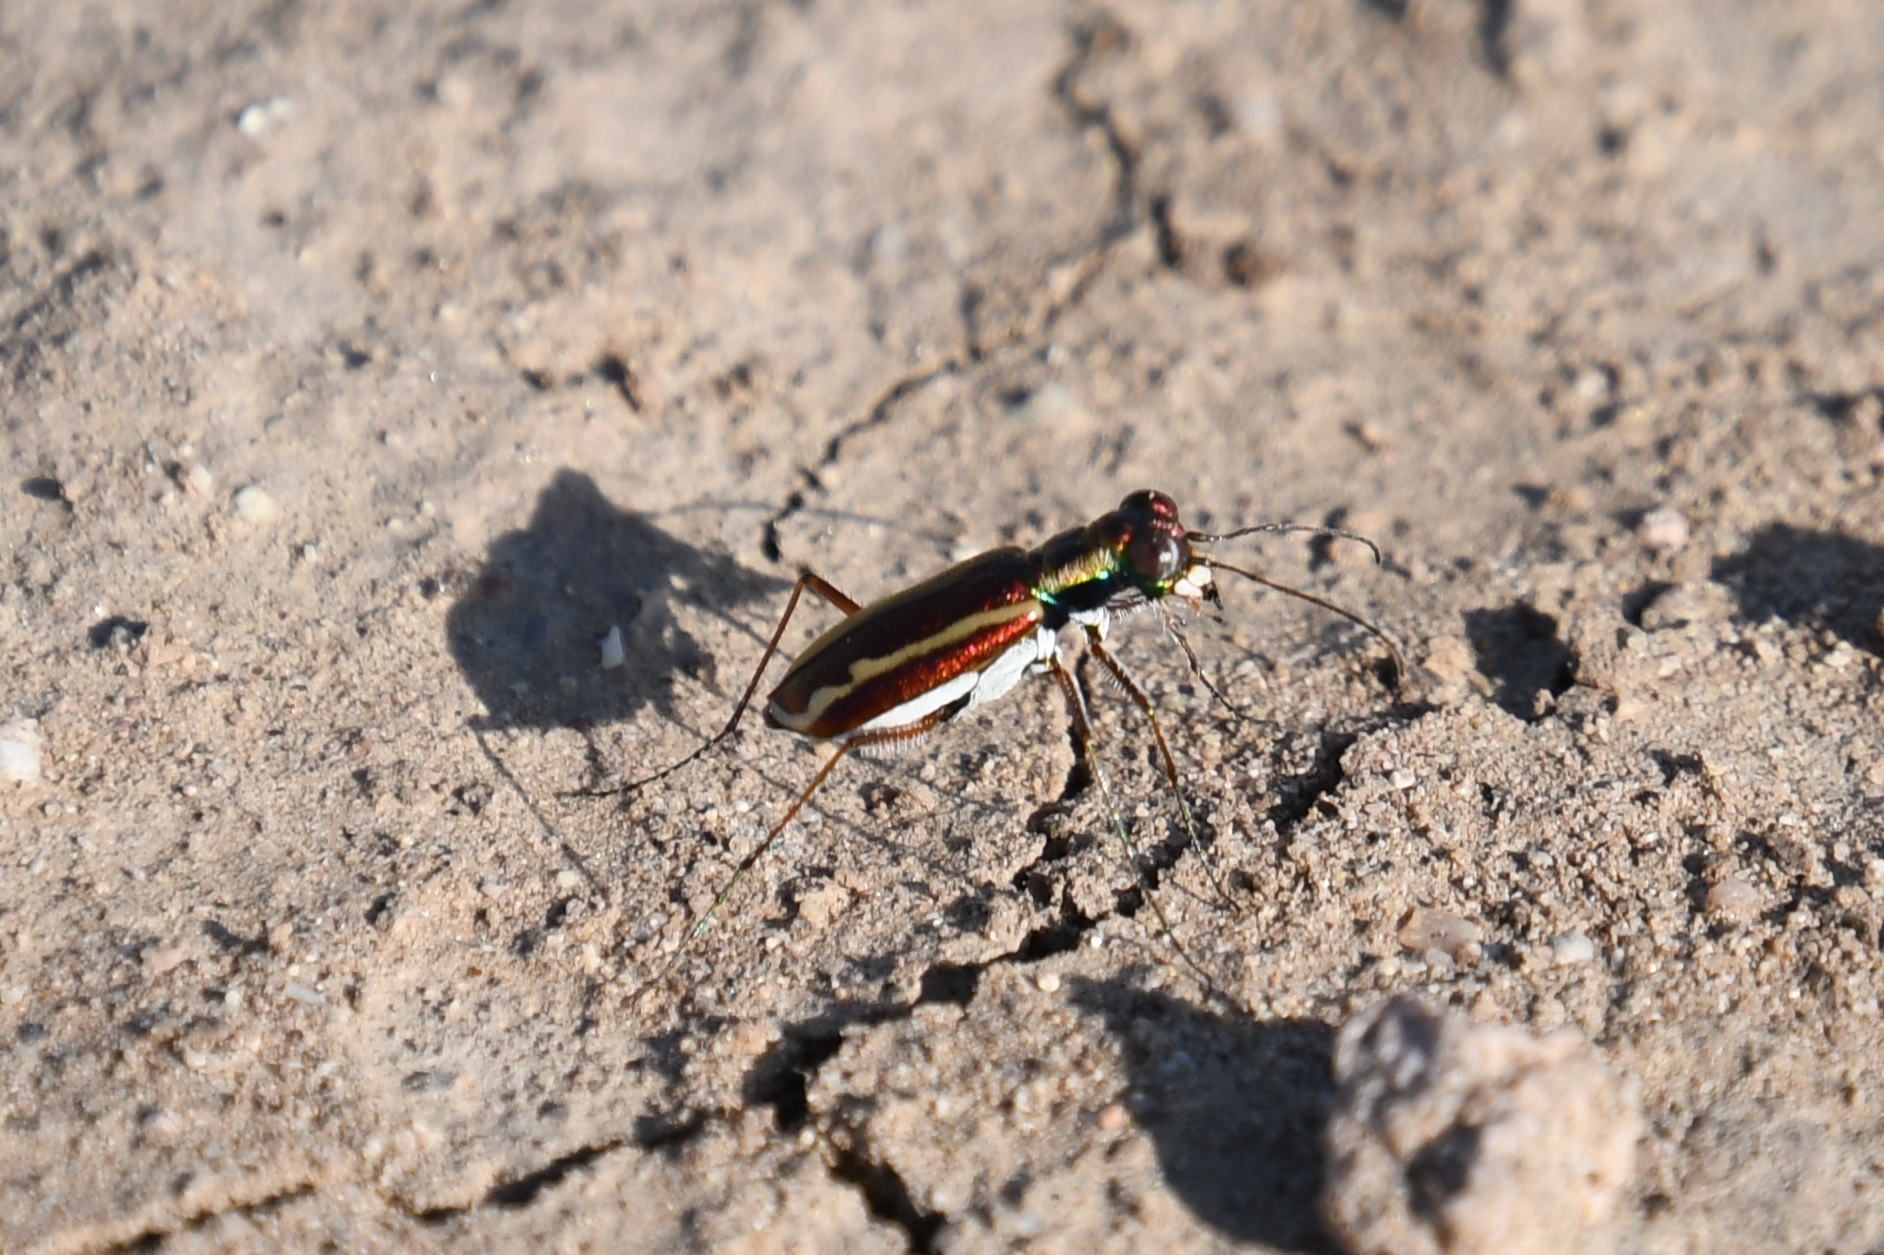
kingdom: Animalia
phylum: Arthropoda
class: Insecta
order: Coleoptera
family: Carabidae
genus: Cylindera
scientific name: Cylindera lemniscata
